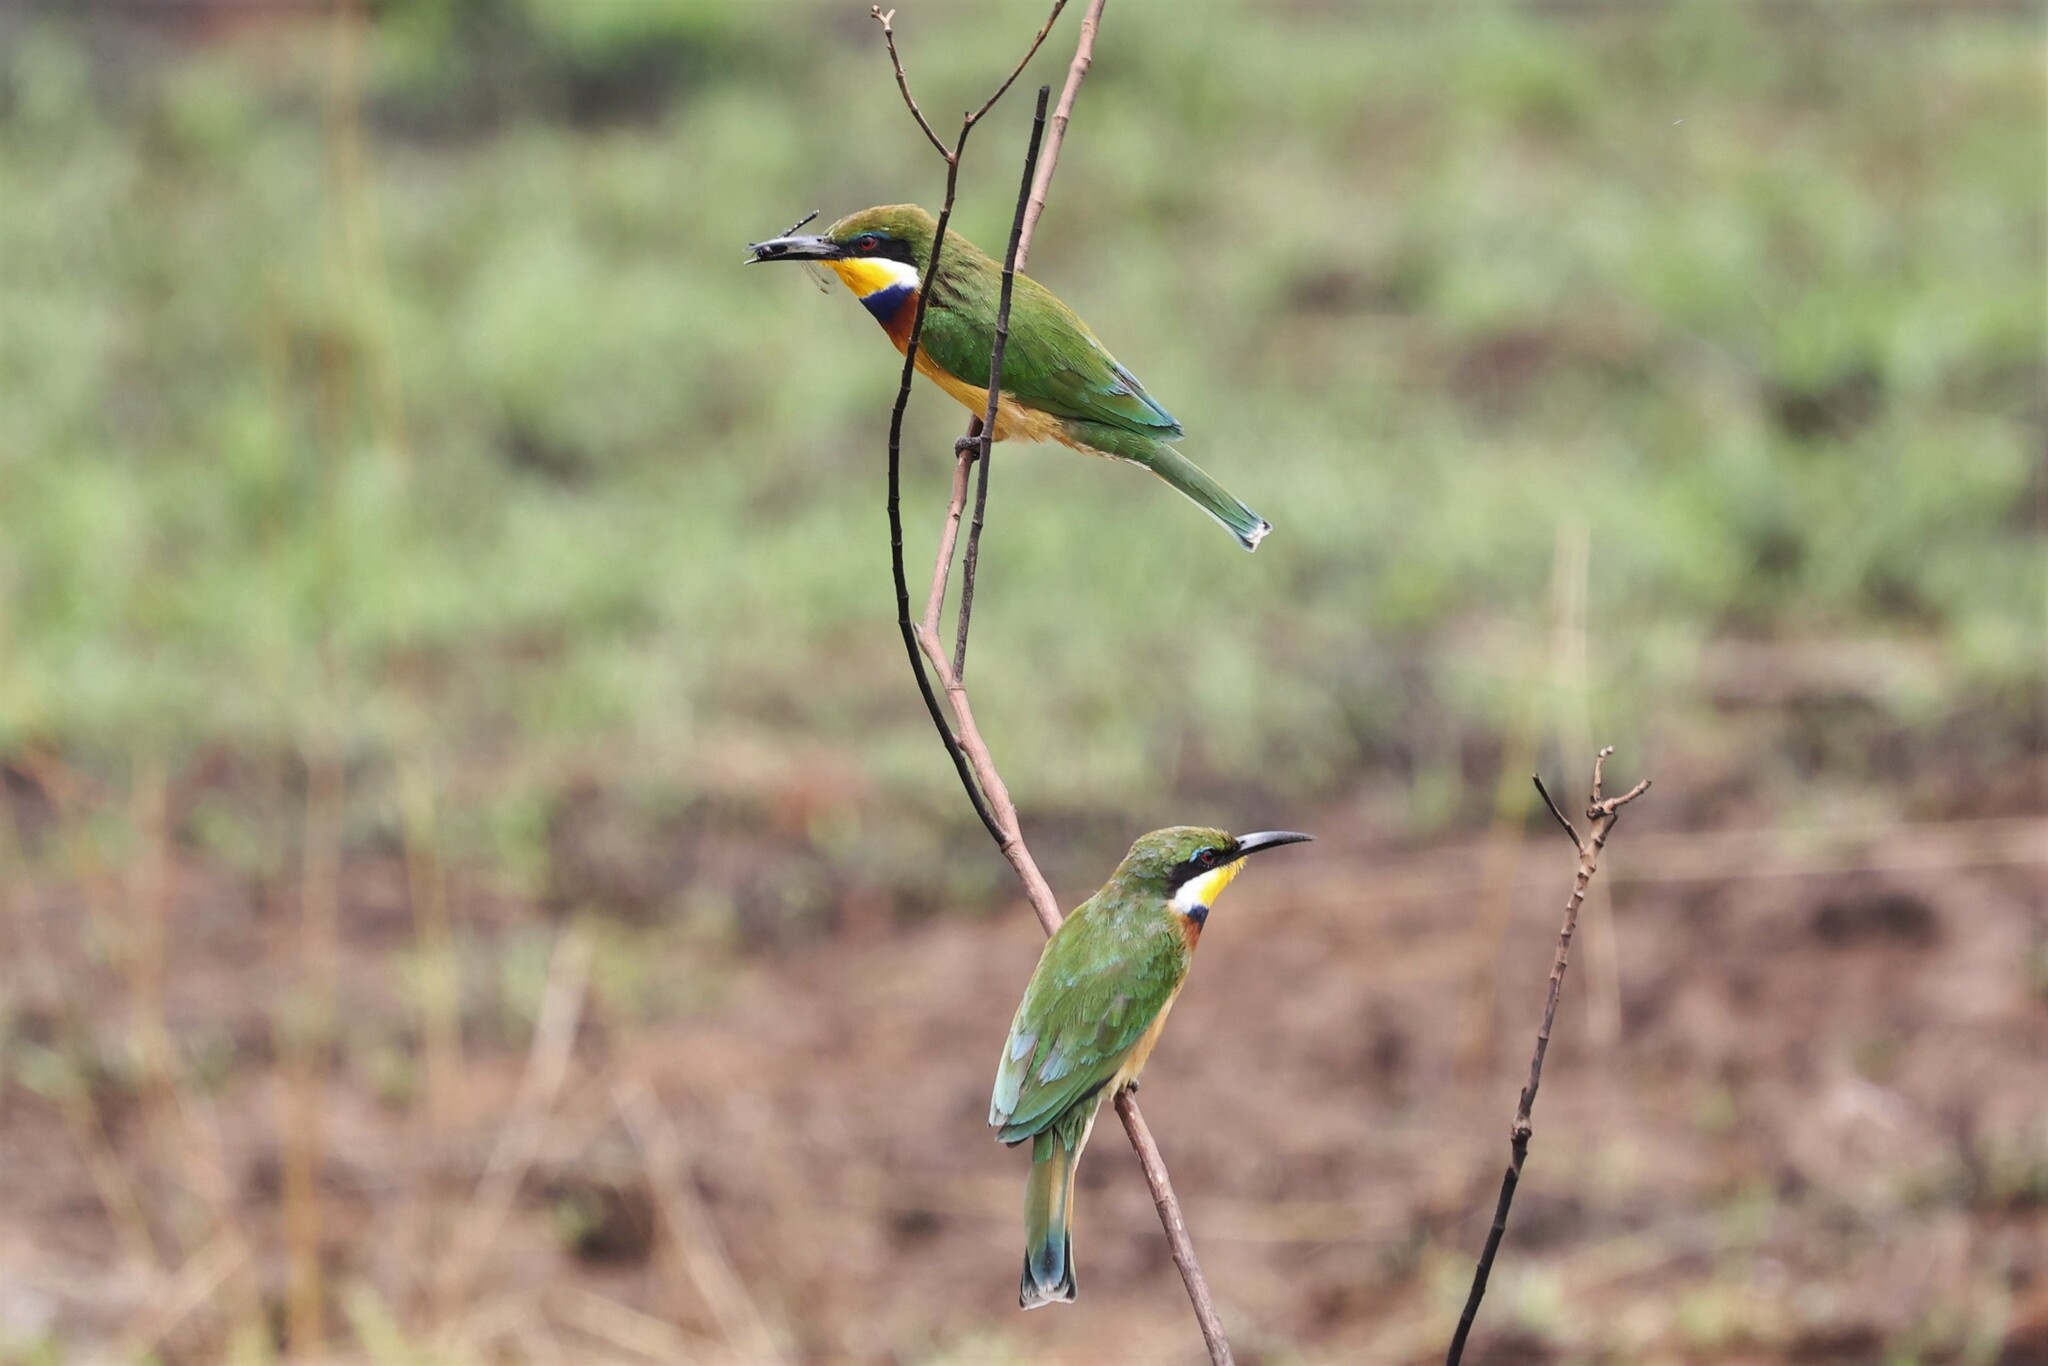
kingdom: Animalia
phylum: Chordata
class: Aves
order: Coraciiformes
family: Meropidae
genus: Merops
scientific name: Merops variegatus
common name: Blue-breasted bee-eater
